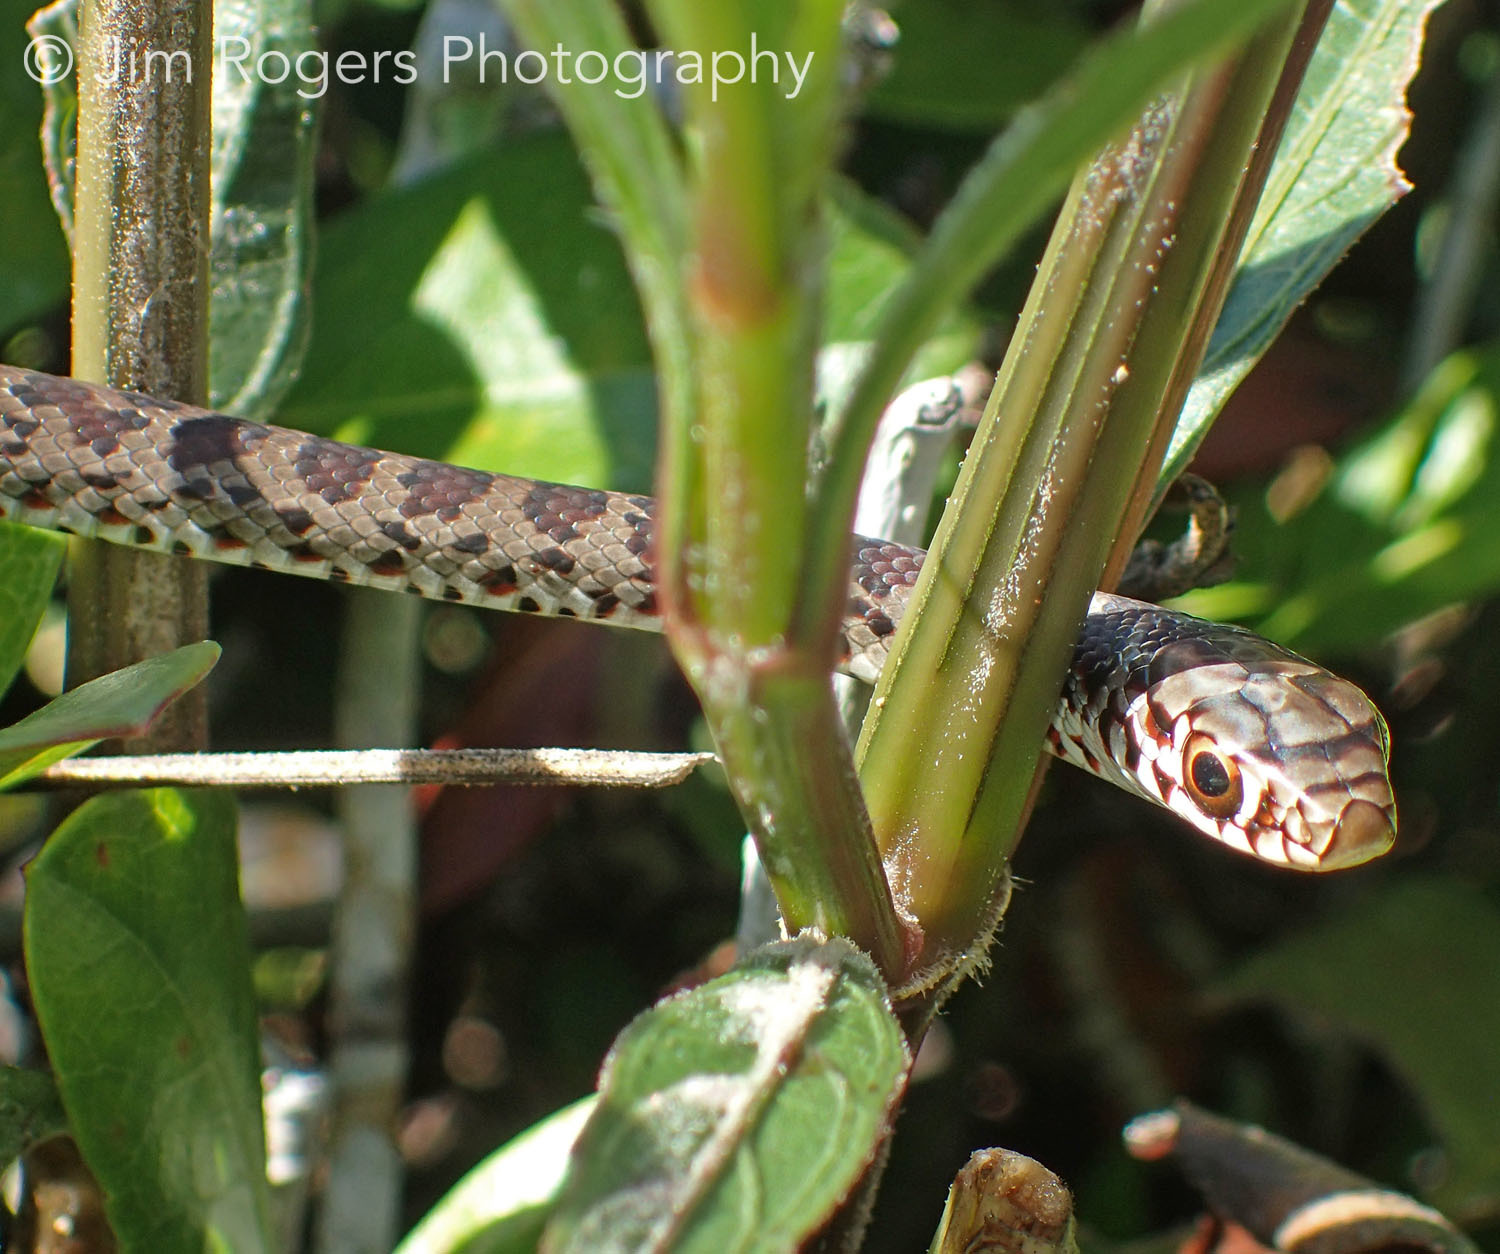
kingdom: Animalia
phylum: Chordata
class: Squamata
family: Colubridae
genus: Coluber
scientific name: Coluber constrictor
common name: Eastern racer
